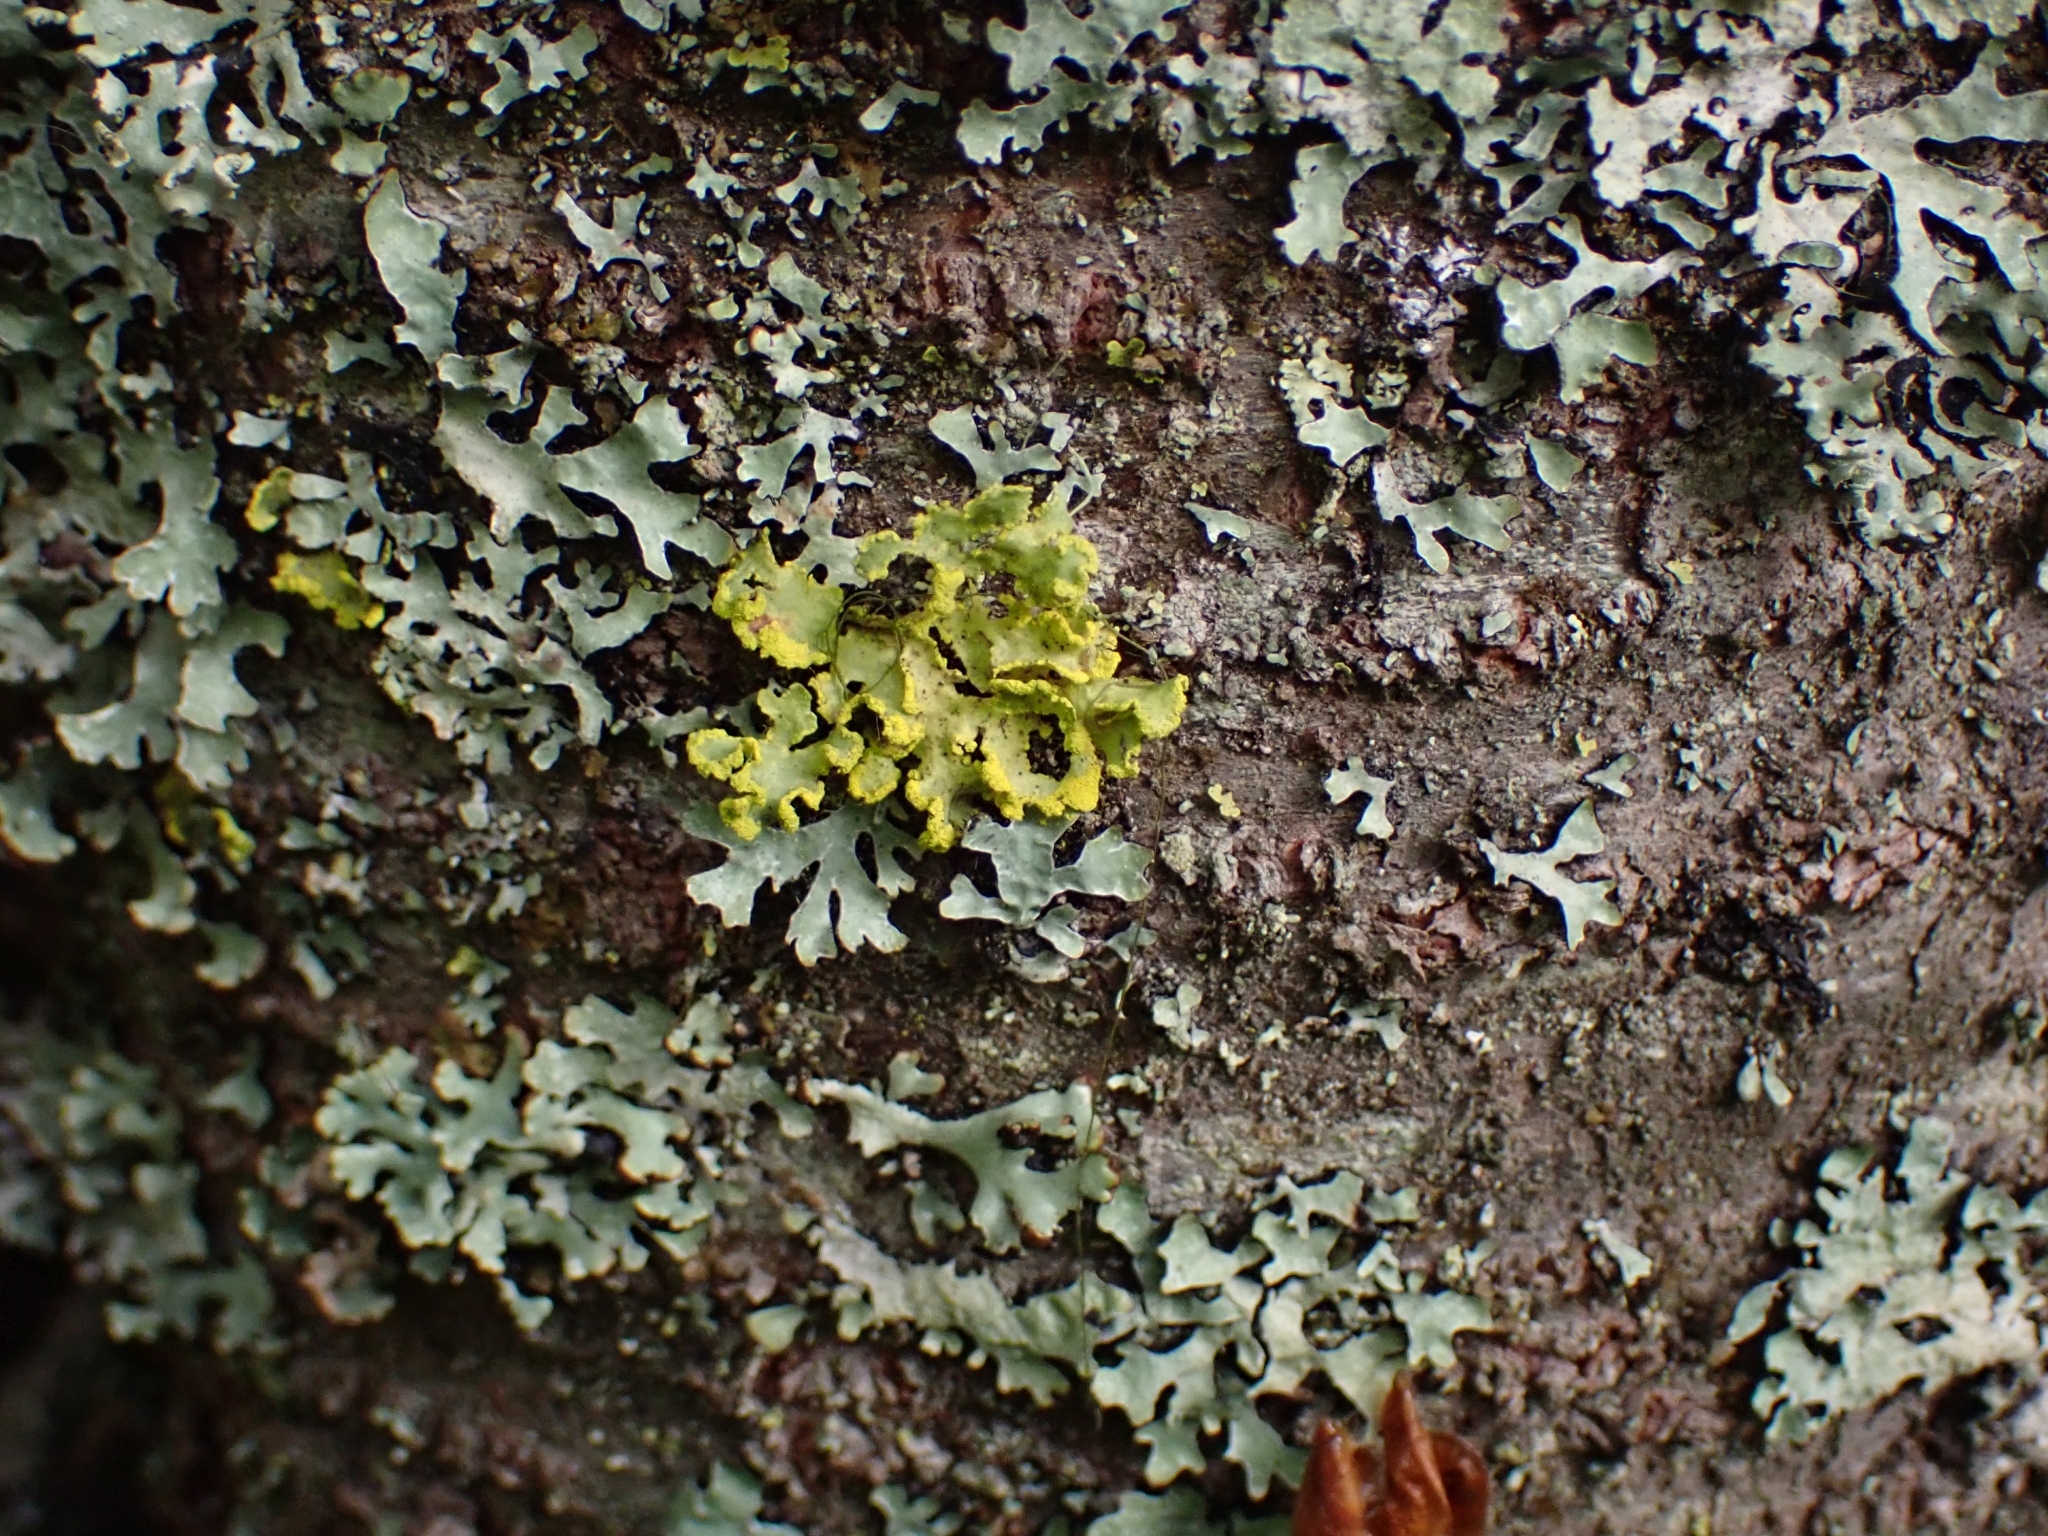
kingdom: Fungi
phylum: Ascomycota
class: Lecanoromycetes
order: Lecanorales
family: Parmeliaceae
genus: Vulpicida
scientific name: Vulpicida pinastri
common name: Powdered sunshine lichen
